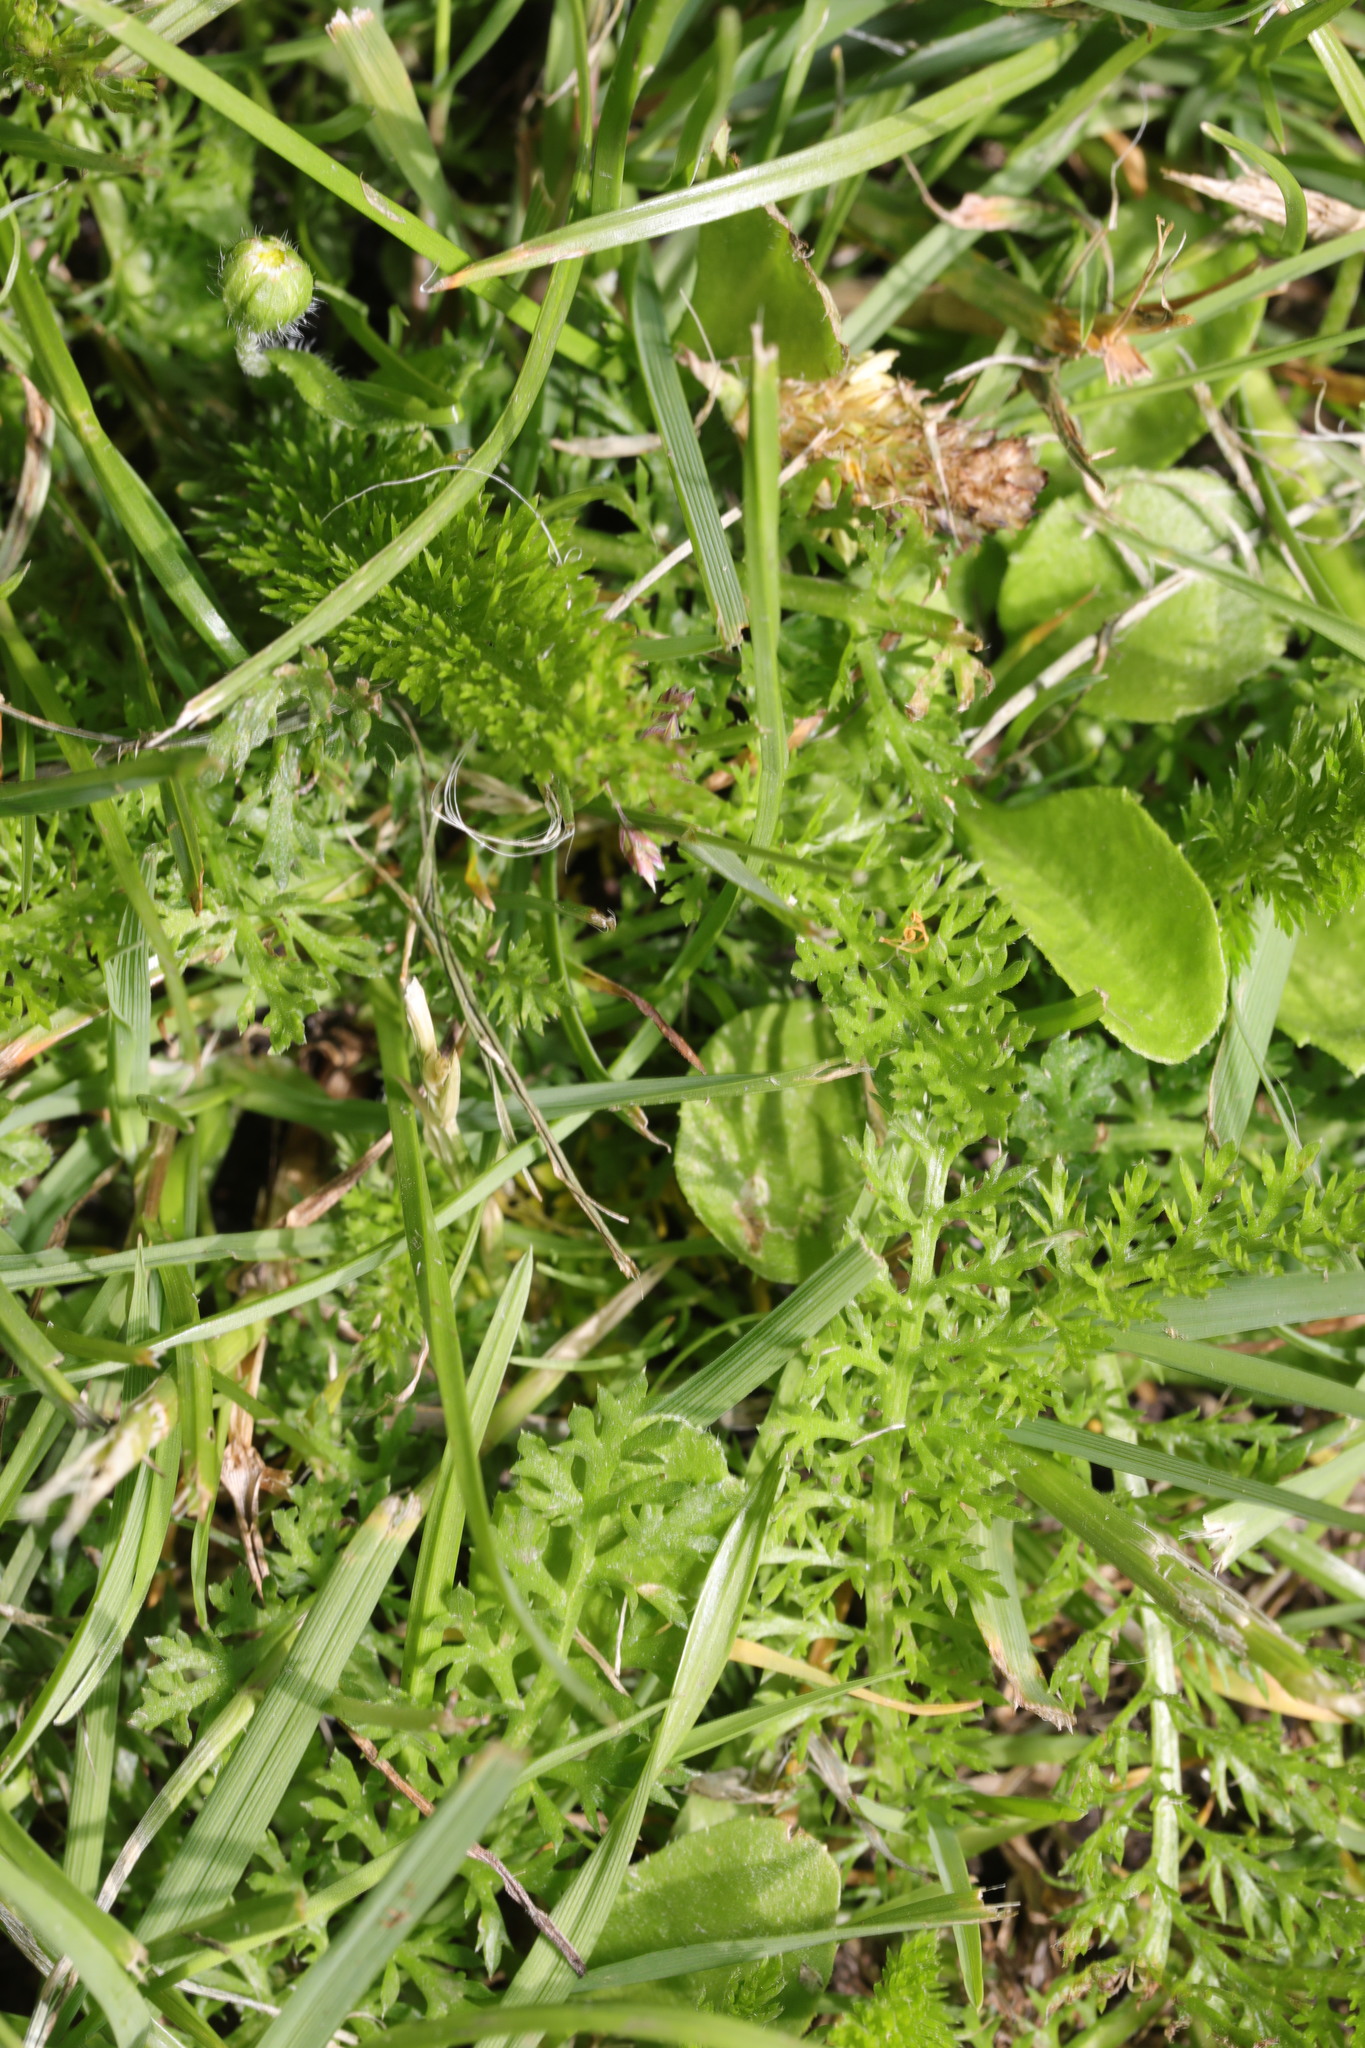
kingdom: Plantae
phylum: Tracheophyta
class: Magnoliopsida
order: Asterales
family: Asteraceae
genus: Achillea
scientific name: Achillea millefolium
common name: Yarrow
